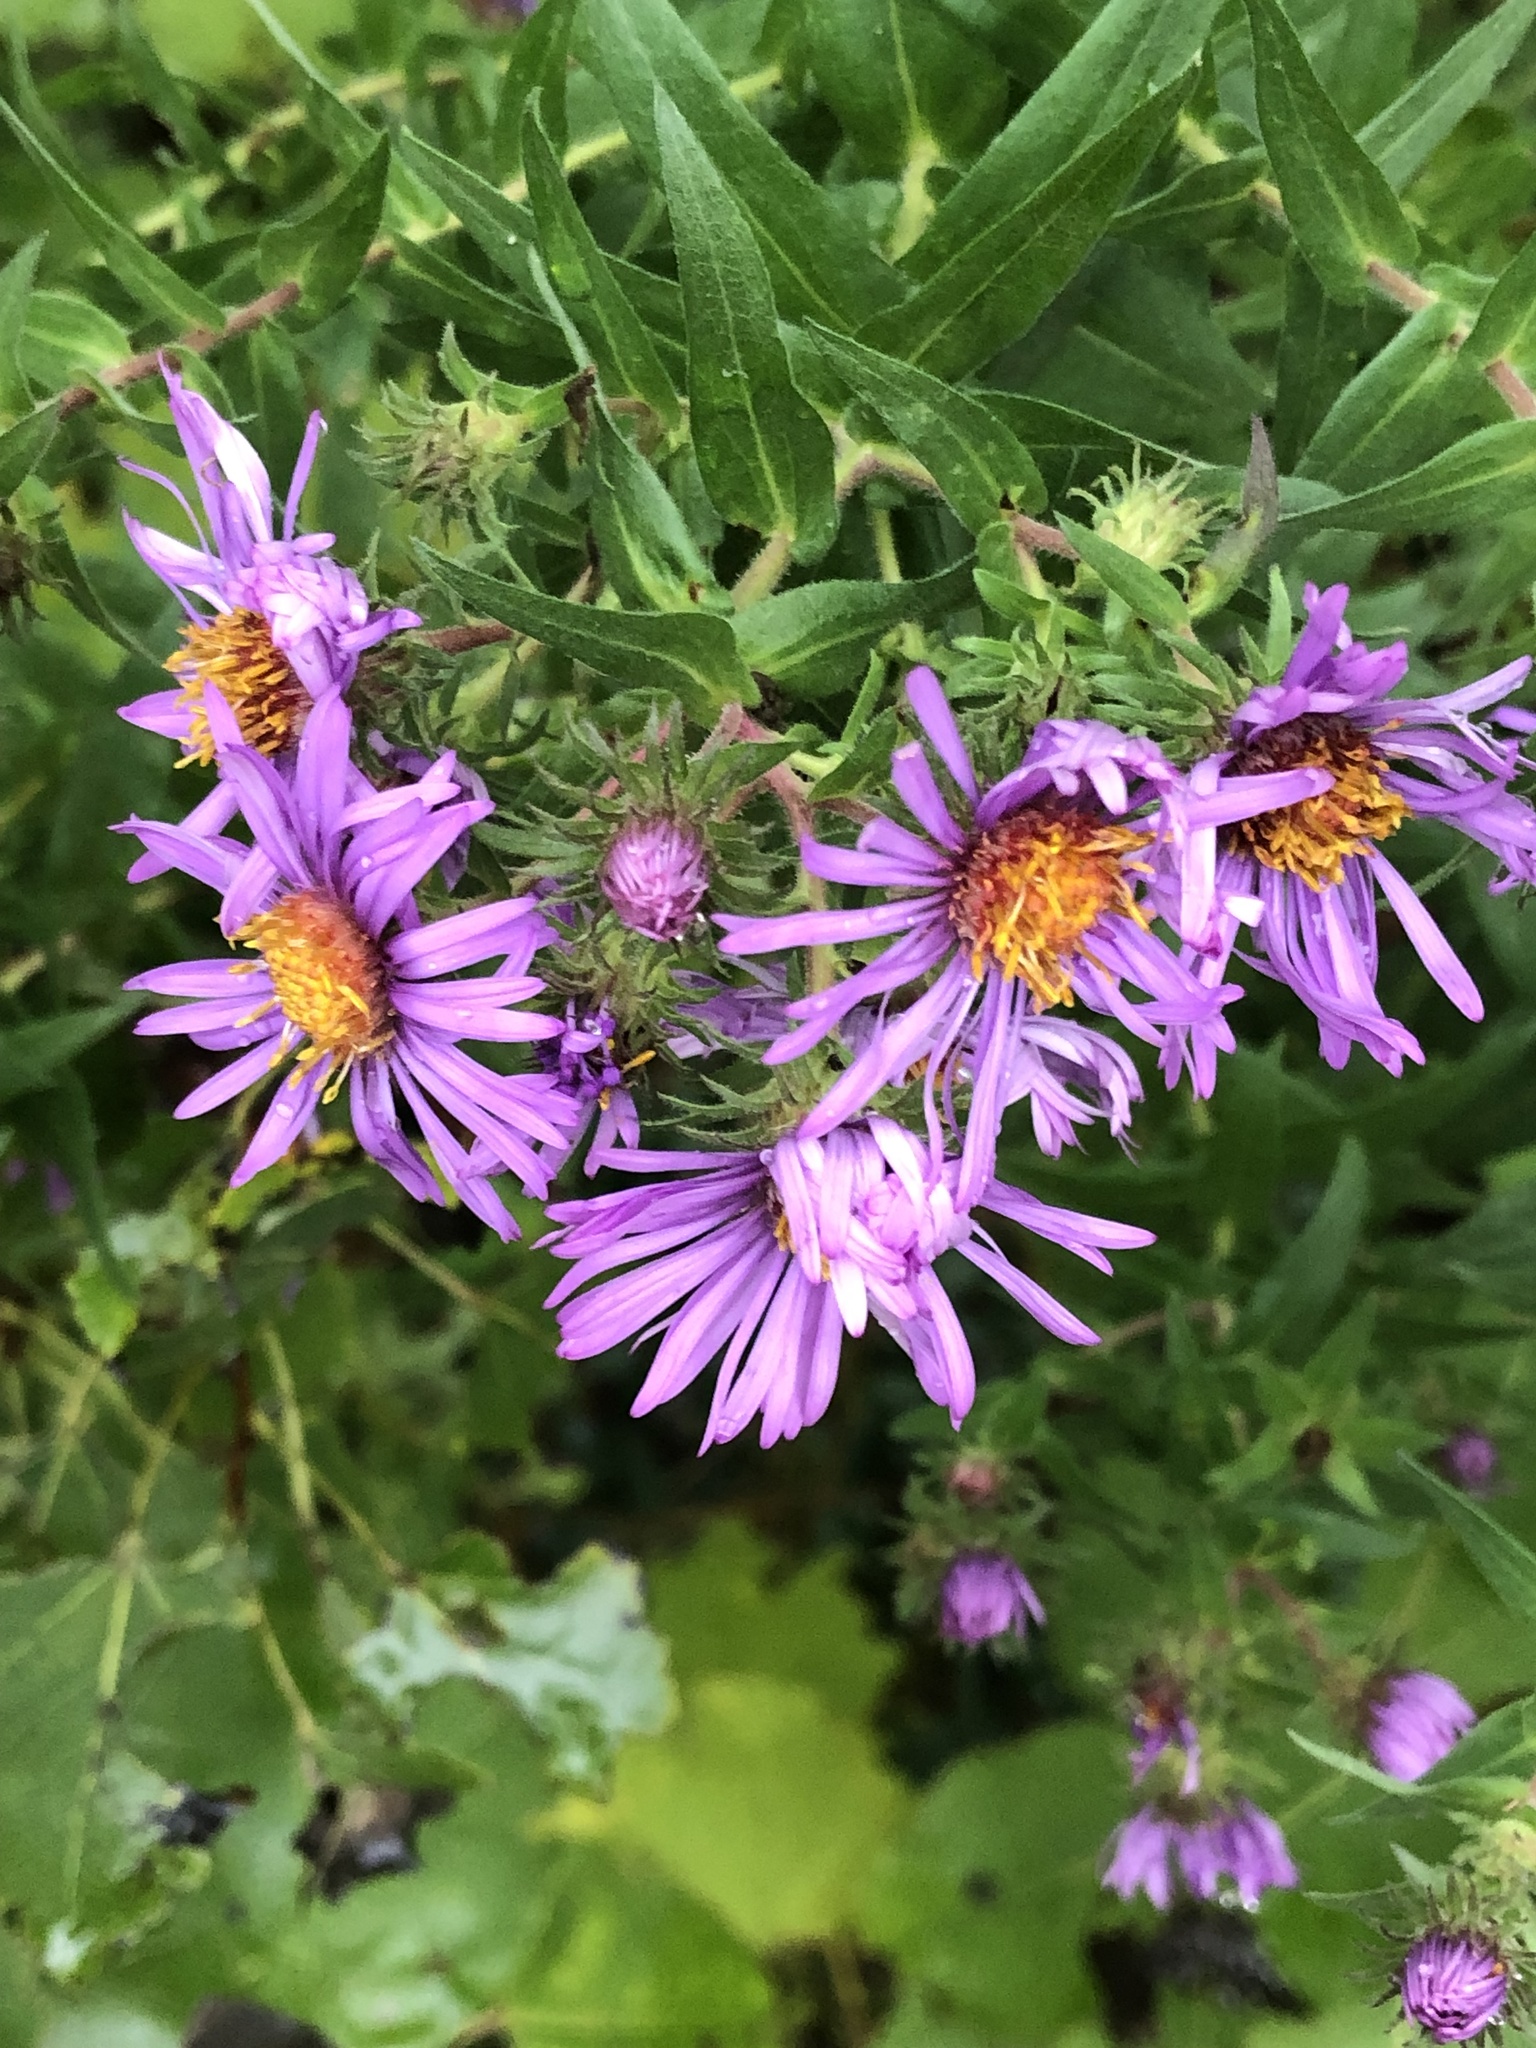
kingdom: Plantae
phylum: Tracheophyta
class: Magnoliopsida
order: Asterales
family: Asteraceae
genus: Symphyotrichum
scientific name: Symphyotrichum novae-angliae
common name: Michaelmas daisy
